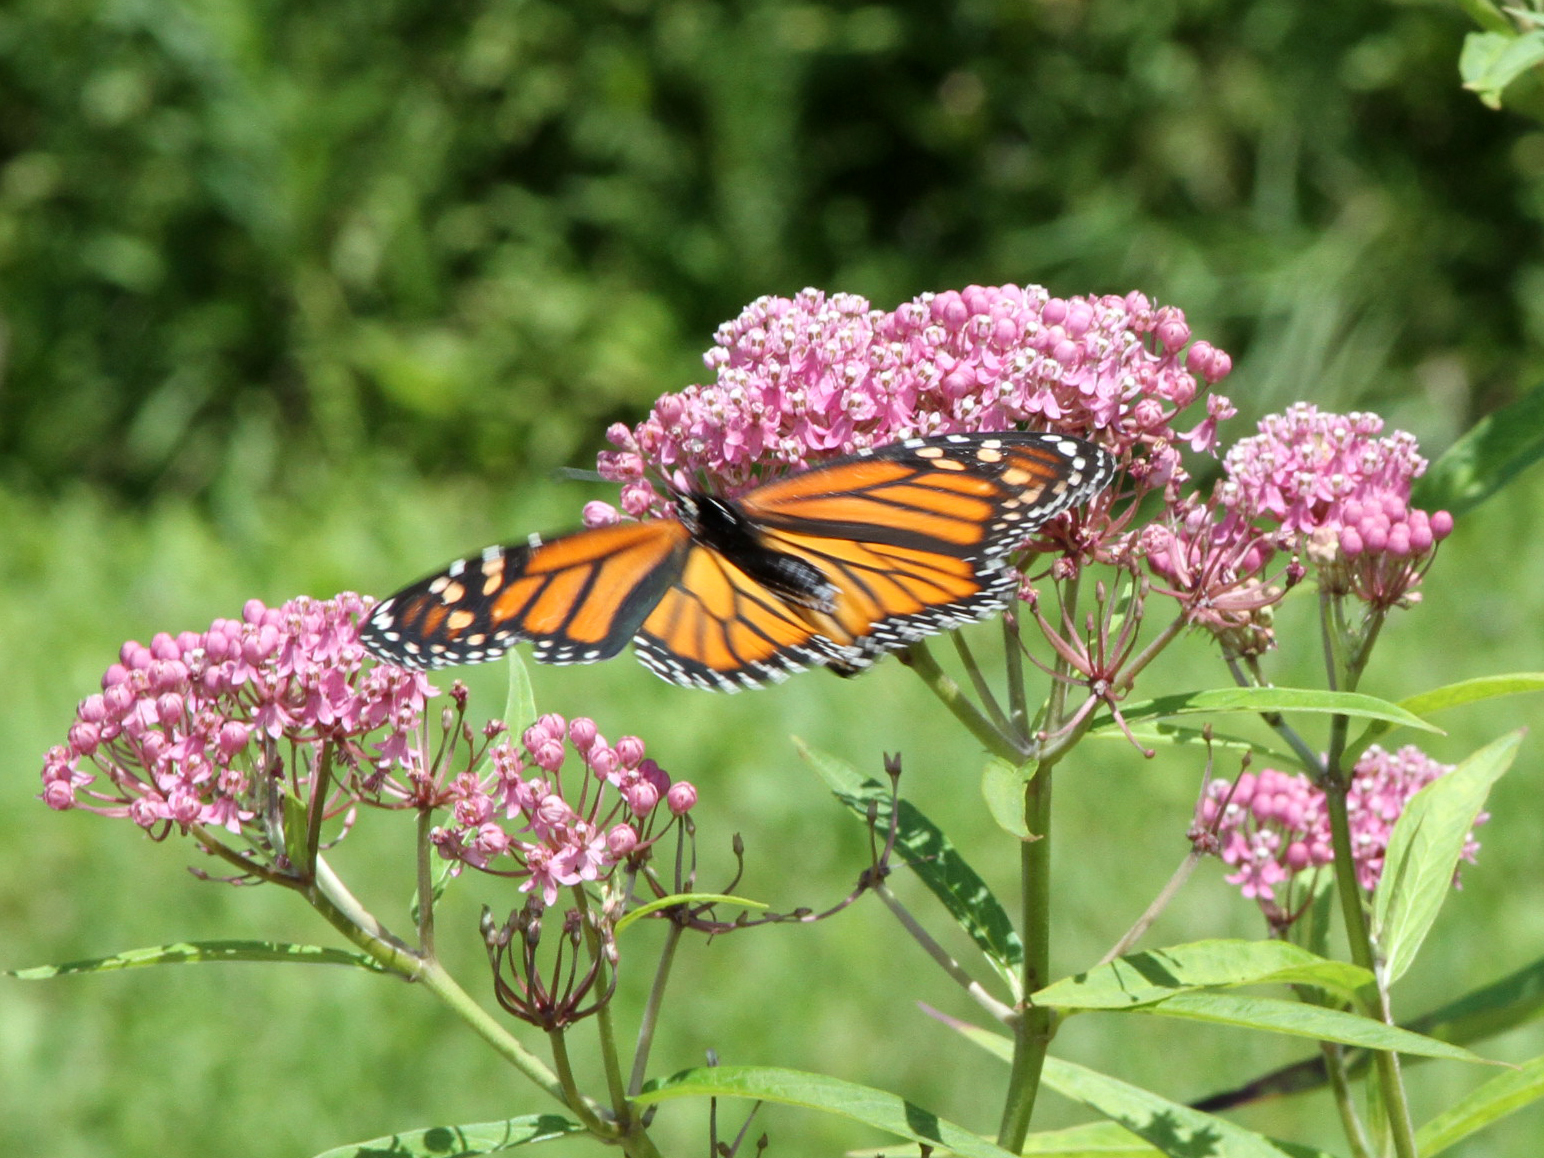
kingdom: Animalia
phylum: Arthropoda
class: Insecta
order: Lepidoptera
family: Nymphalidae
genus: Danaus
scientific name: Danaus plexippus
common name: Monarch
